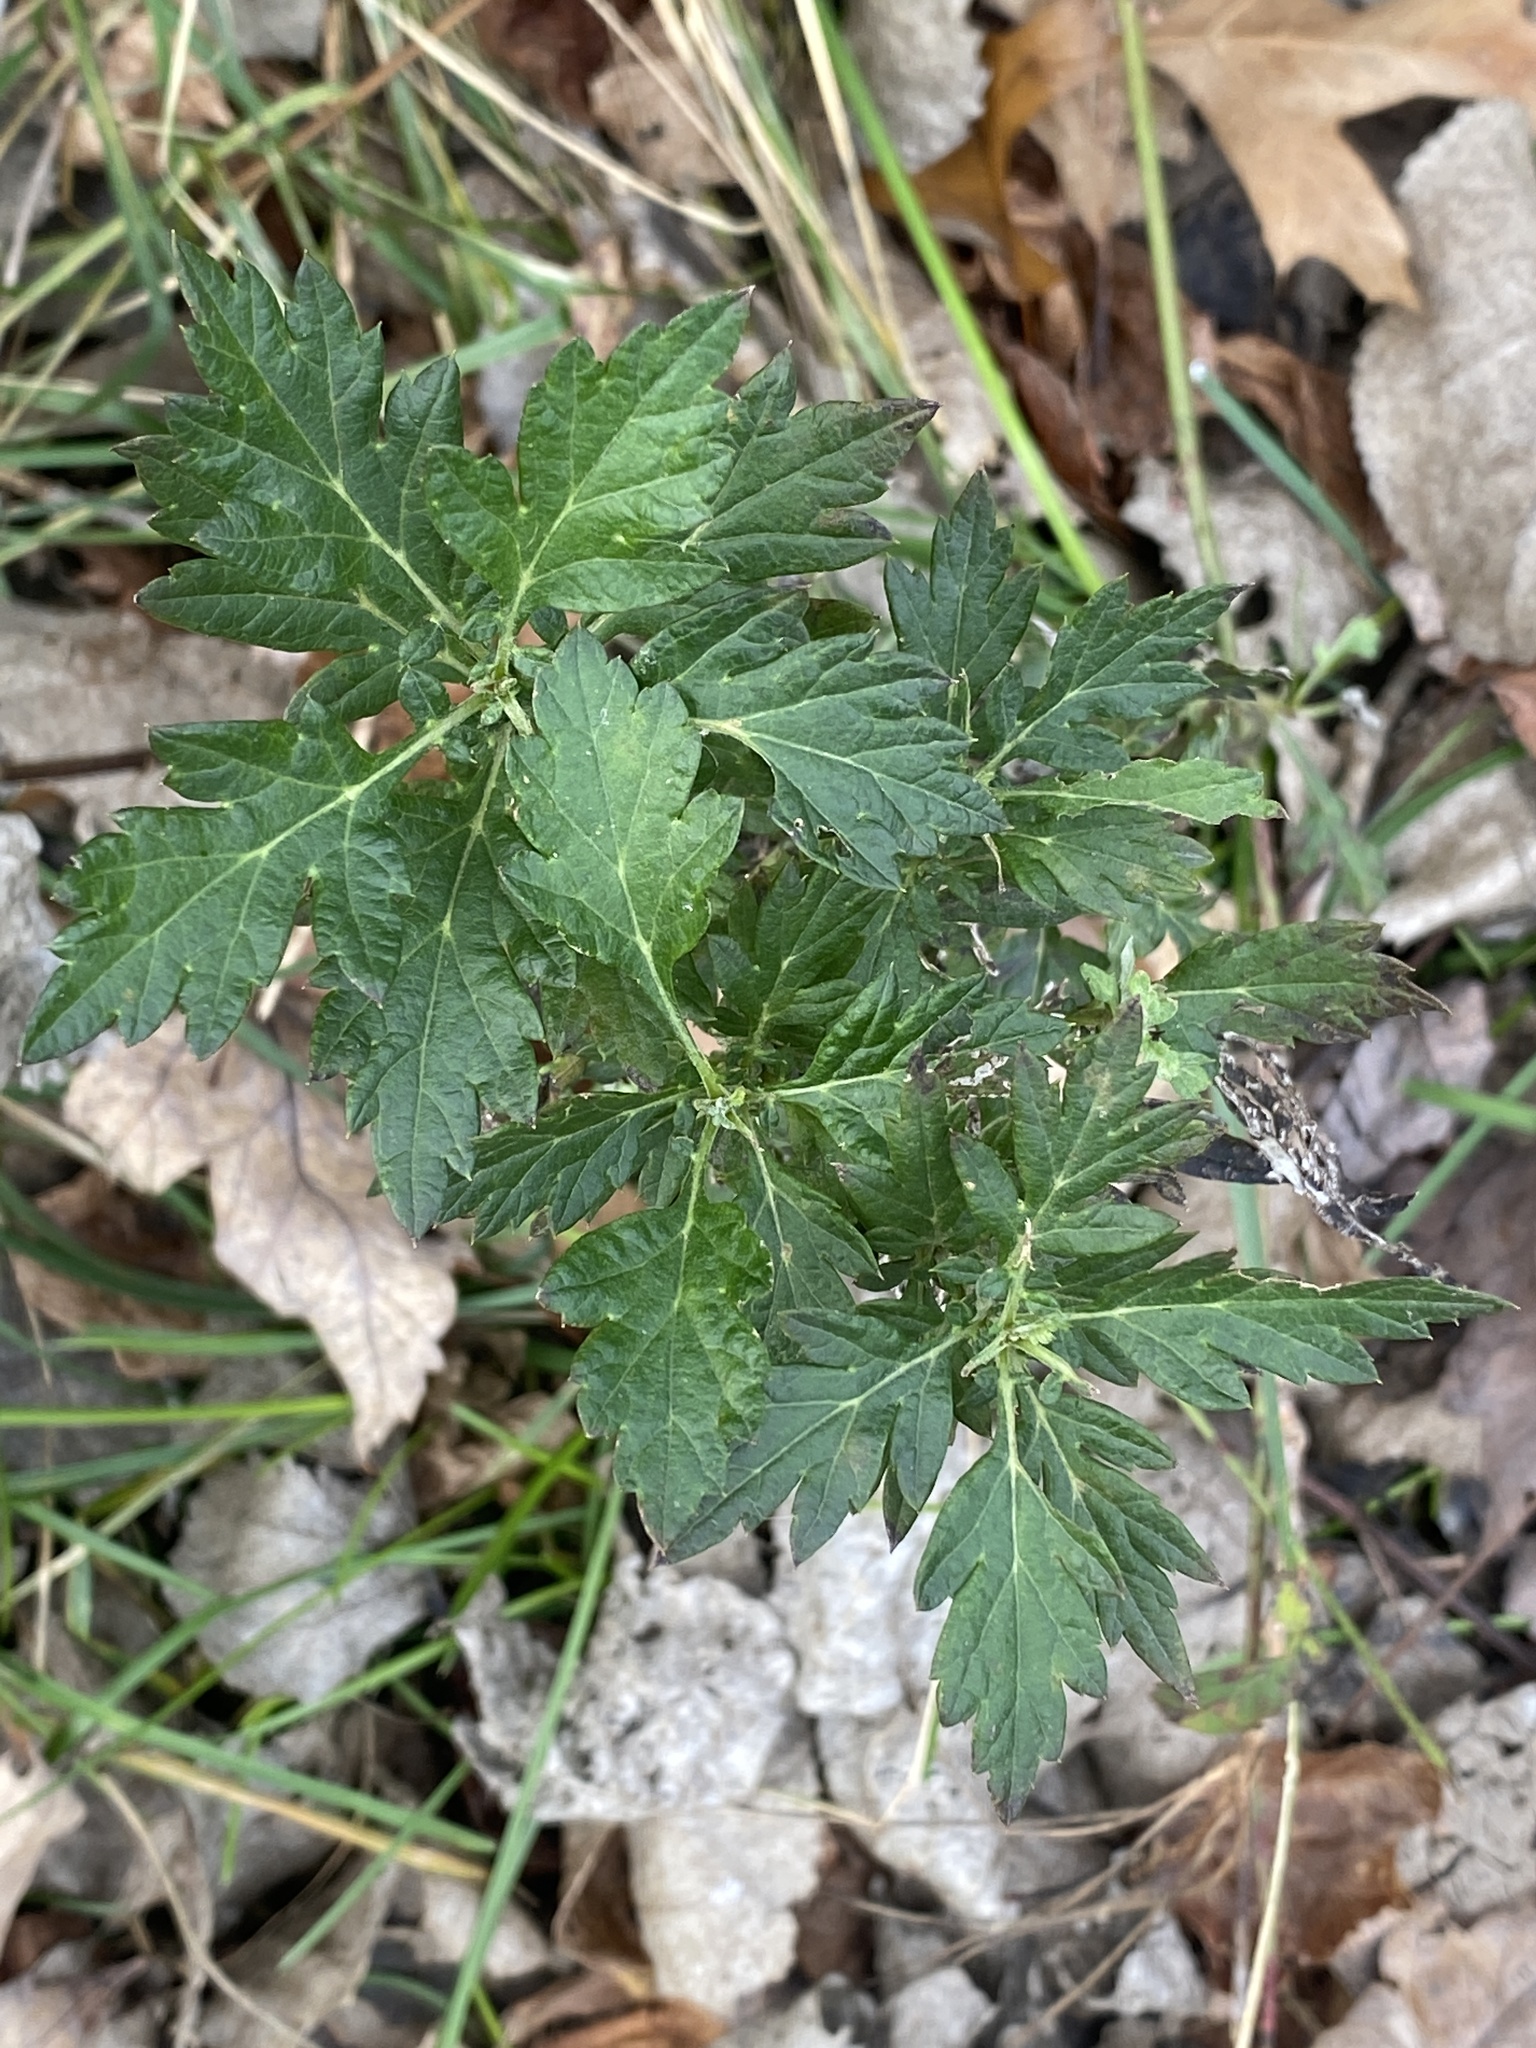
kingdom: Plantae
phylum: Tracheophyta
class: Magnoliopsida
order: Asterales
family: Asteraceae
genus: Artemisia
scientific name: Artemisia vulgaris
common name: Mugwort
